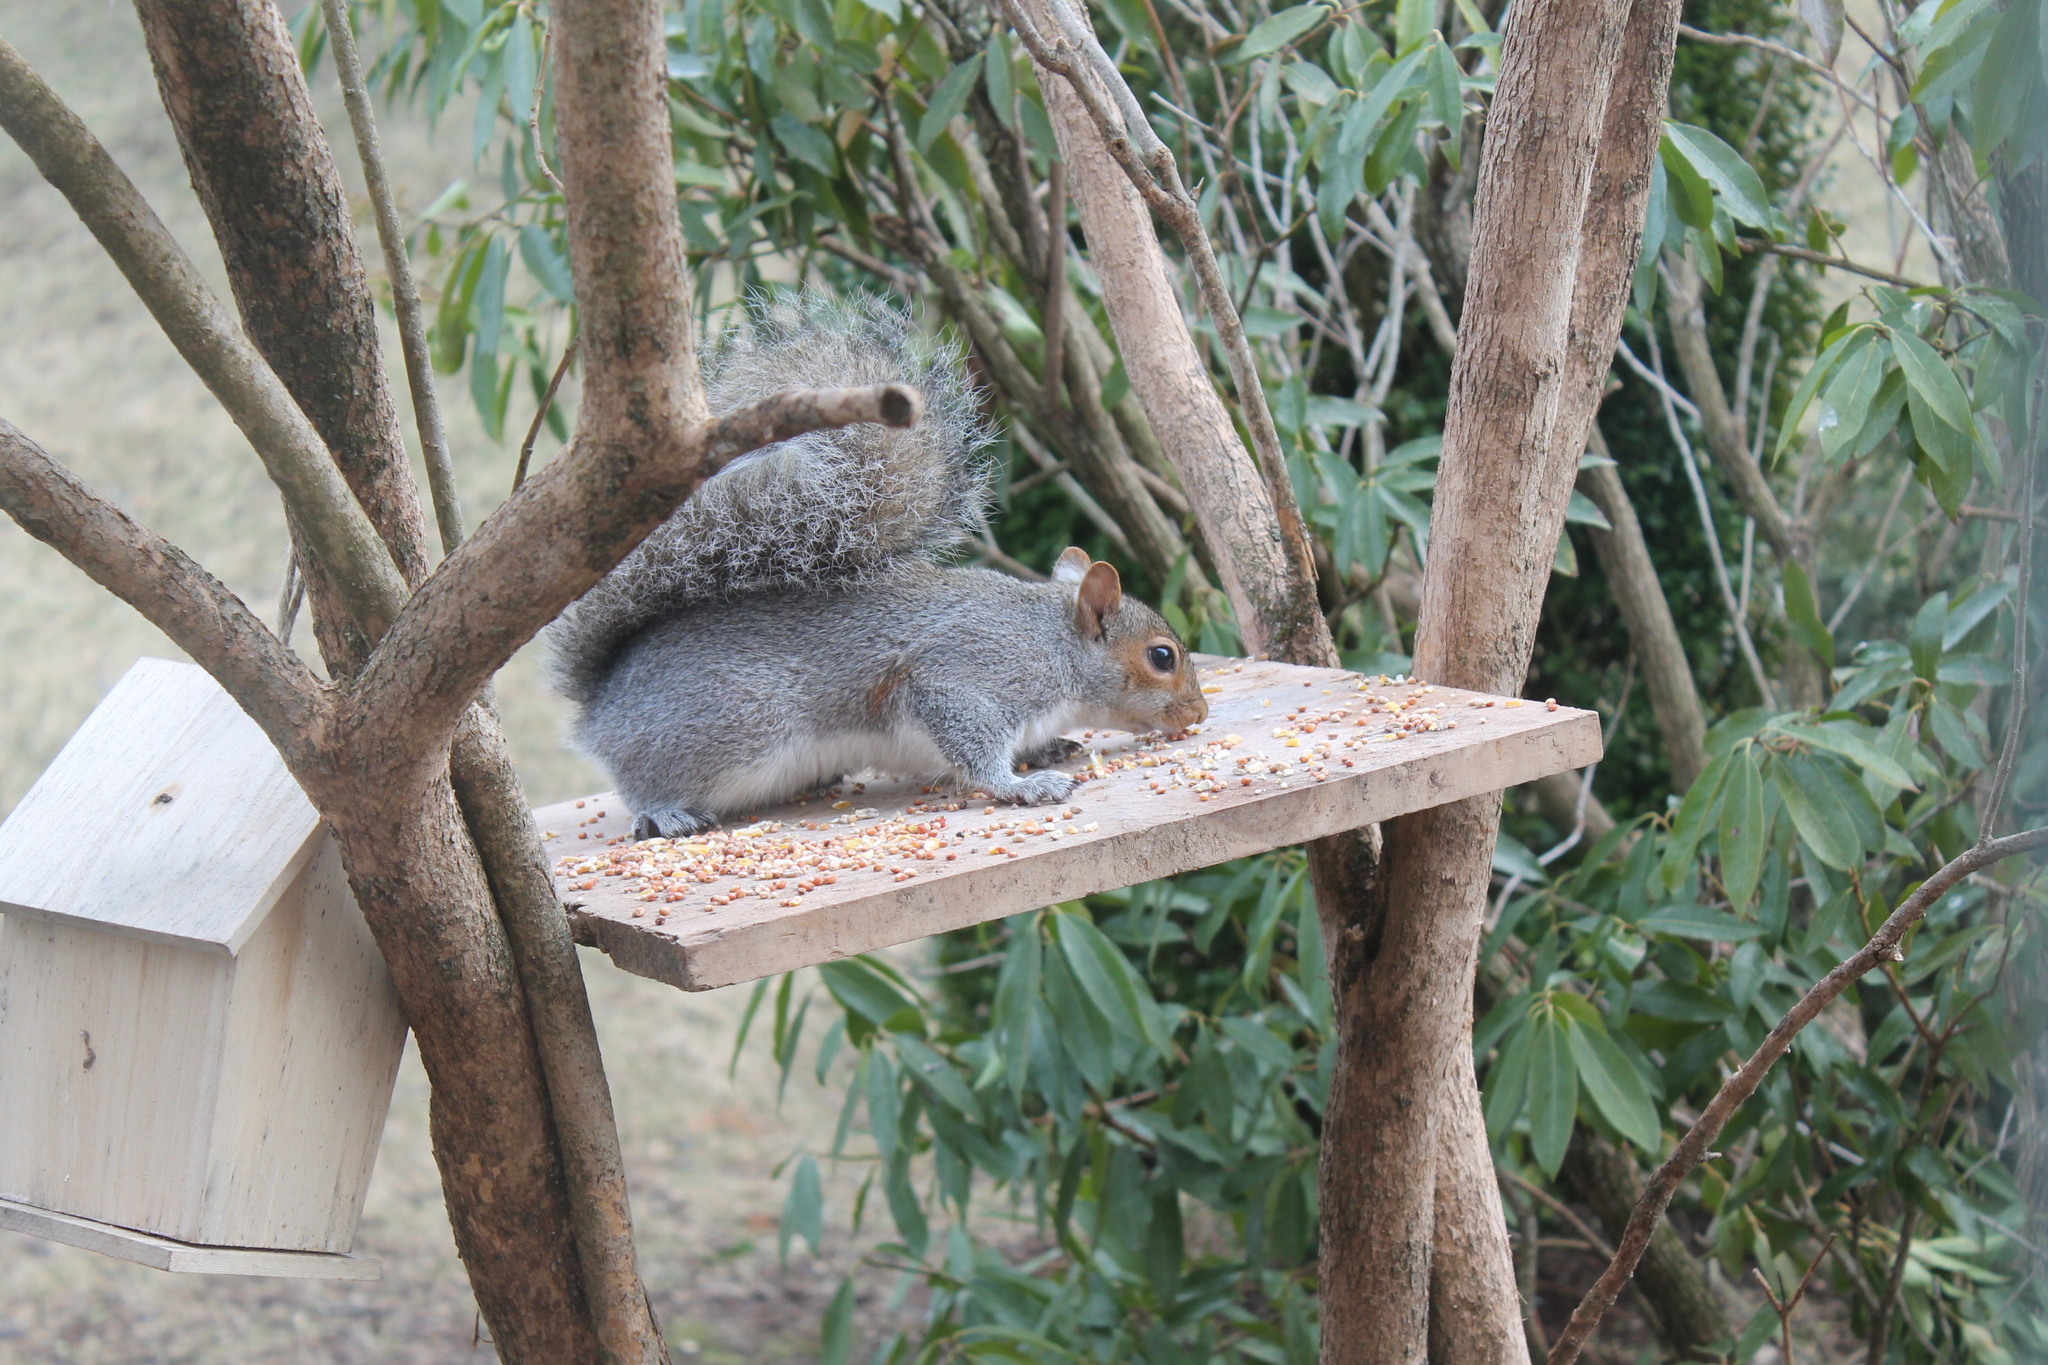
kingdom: Animalia
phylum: Chordata
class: Mammalia
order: Rodentia
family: Sciuridae
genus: Sciurus
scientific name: Sciurus carolinensis
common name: Eastern gray squirrel
